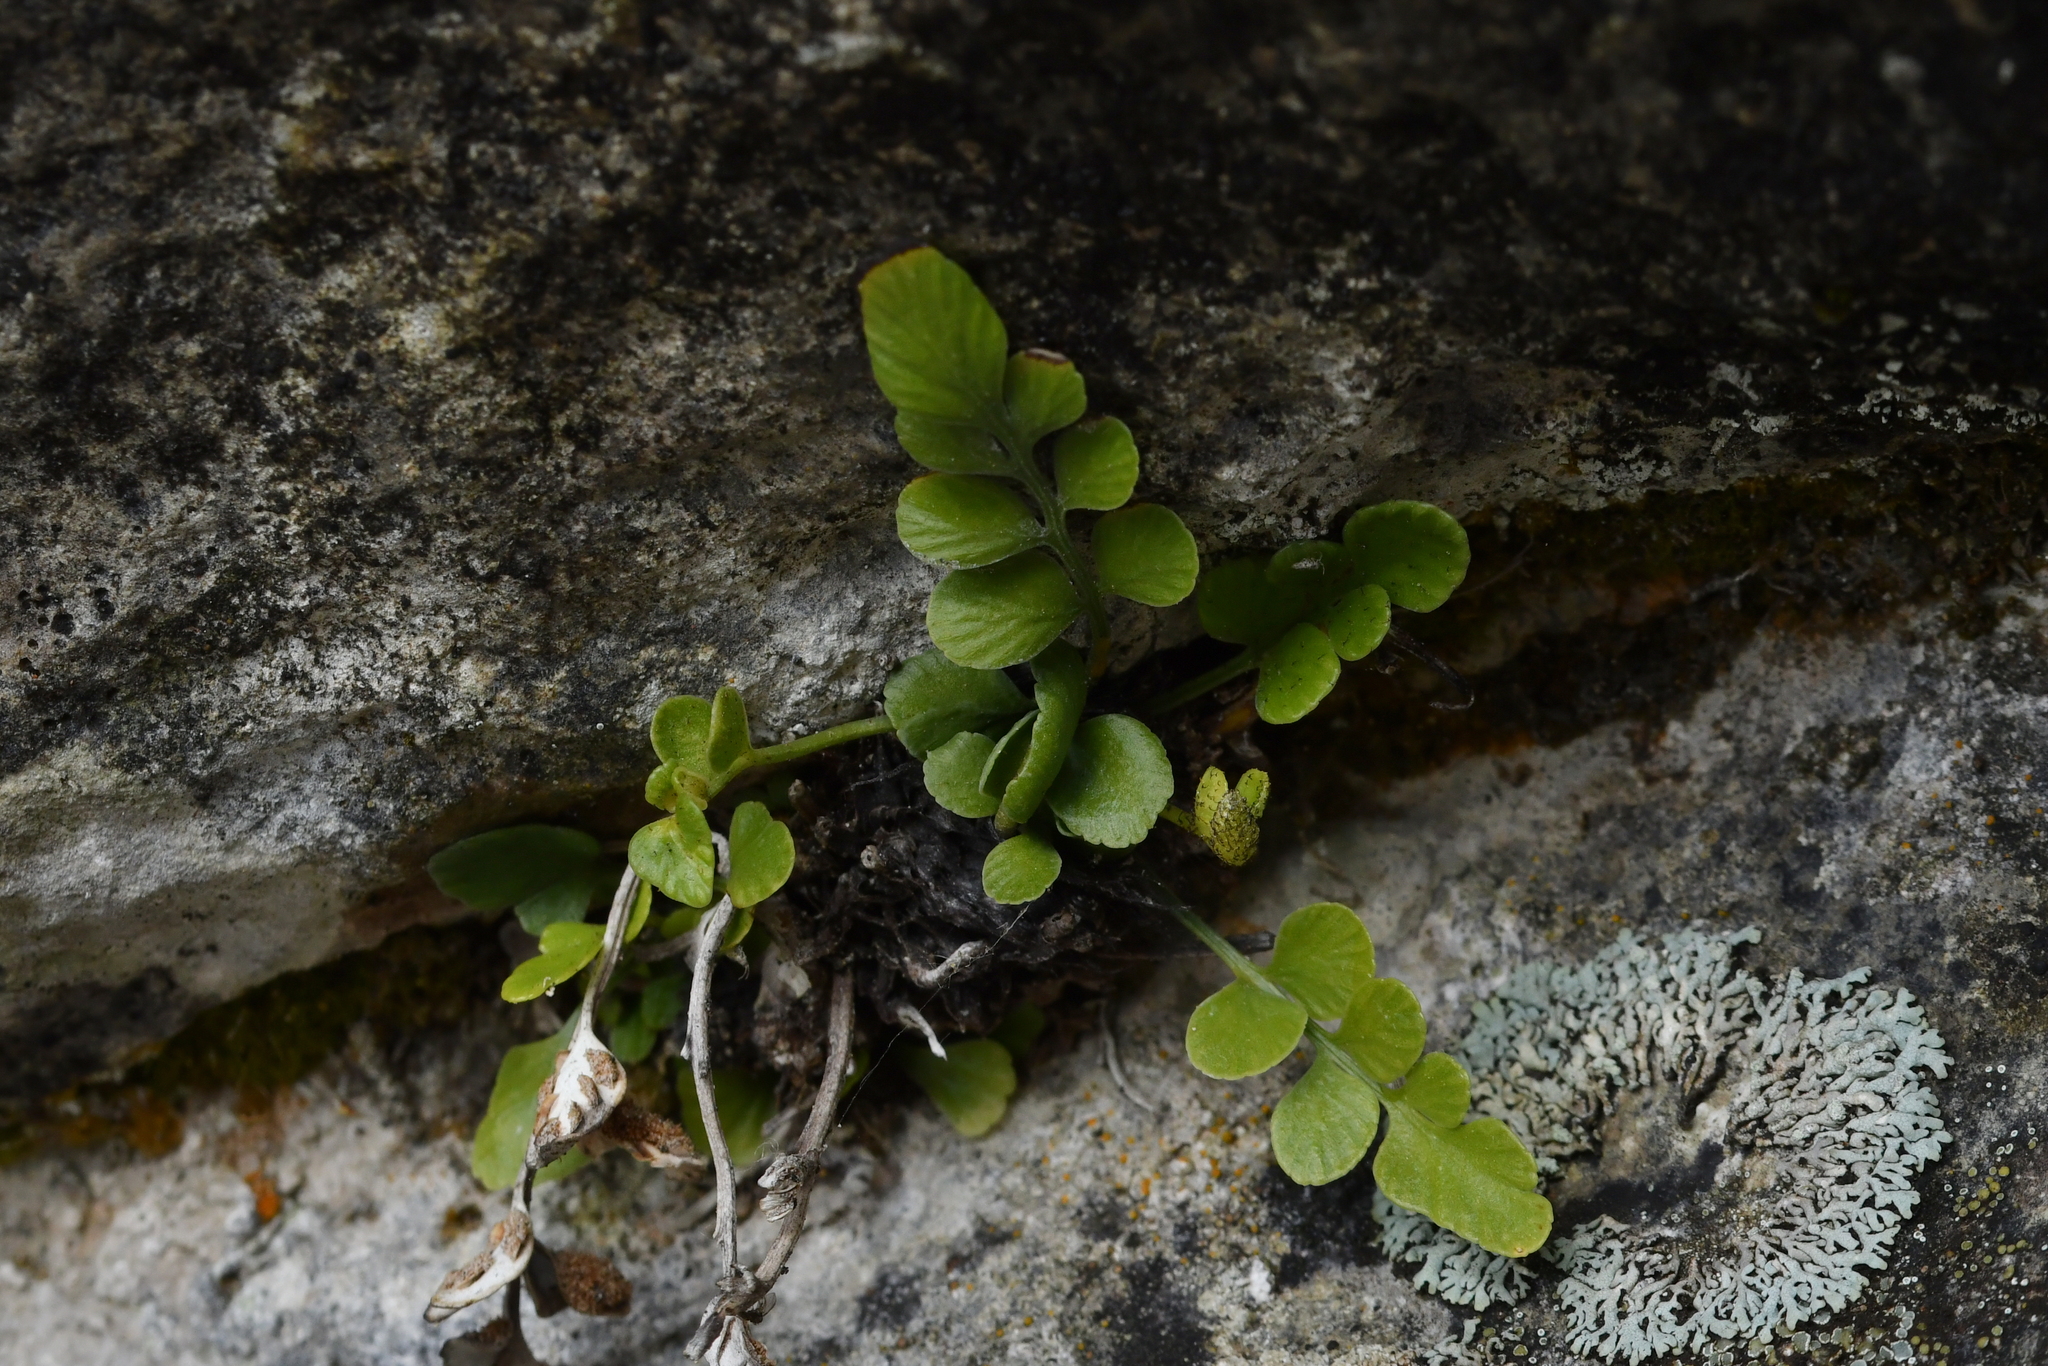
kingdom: Plantae
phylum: Tracheophyta
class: Polypodiopsida
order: Polypodiales
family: Aspleniaceae
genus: Asplenium
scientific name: Asplenium lyallii
